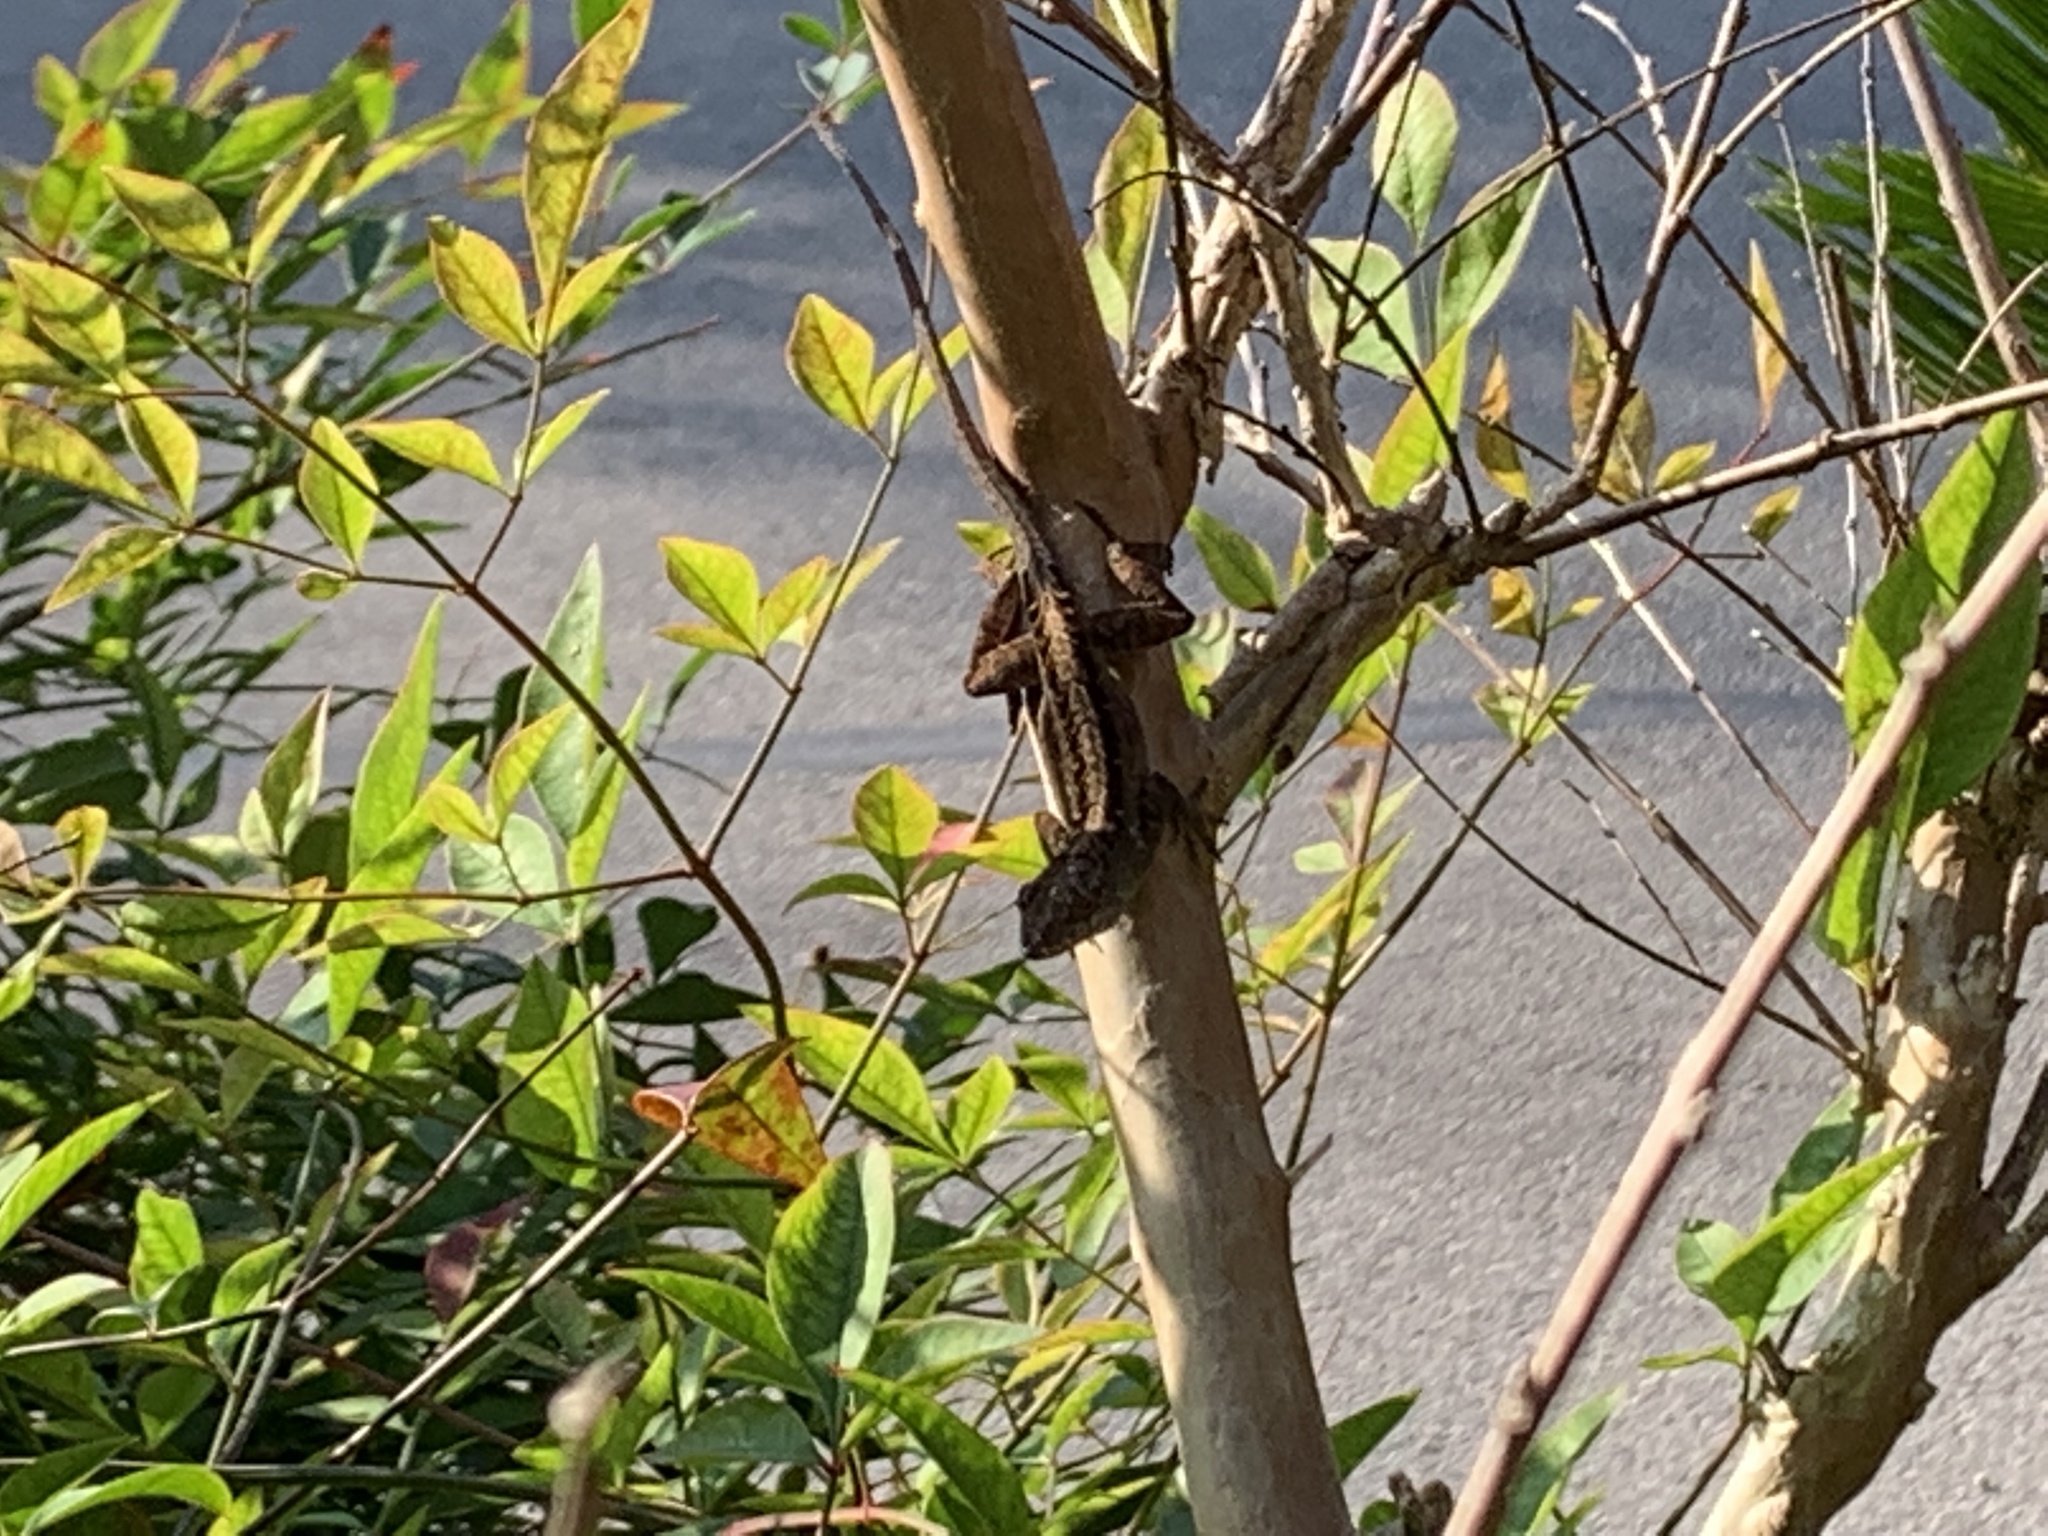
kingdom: Animalia
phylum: Chordata
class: Squamata
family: Dactyloidae
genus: Anolis
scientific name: Anolis sagrei
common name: Brown anole
